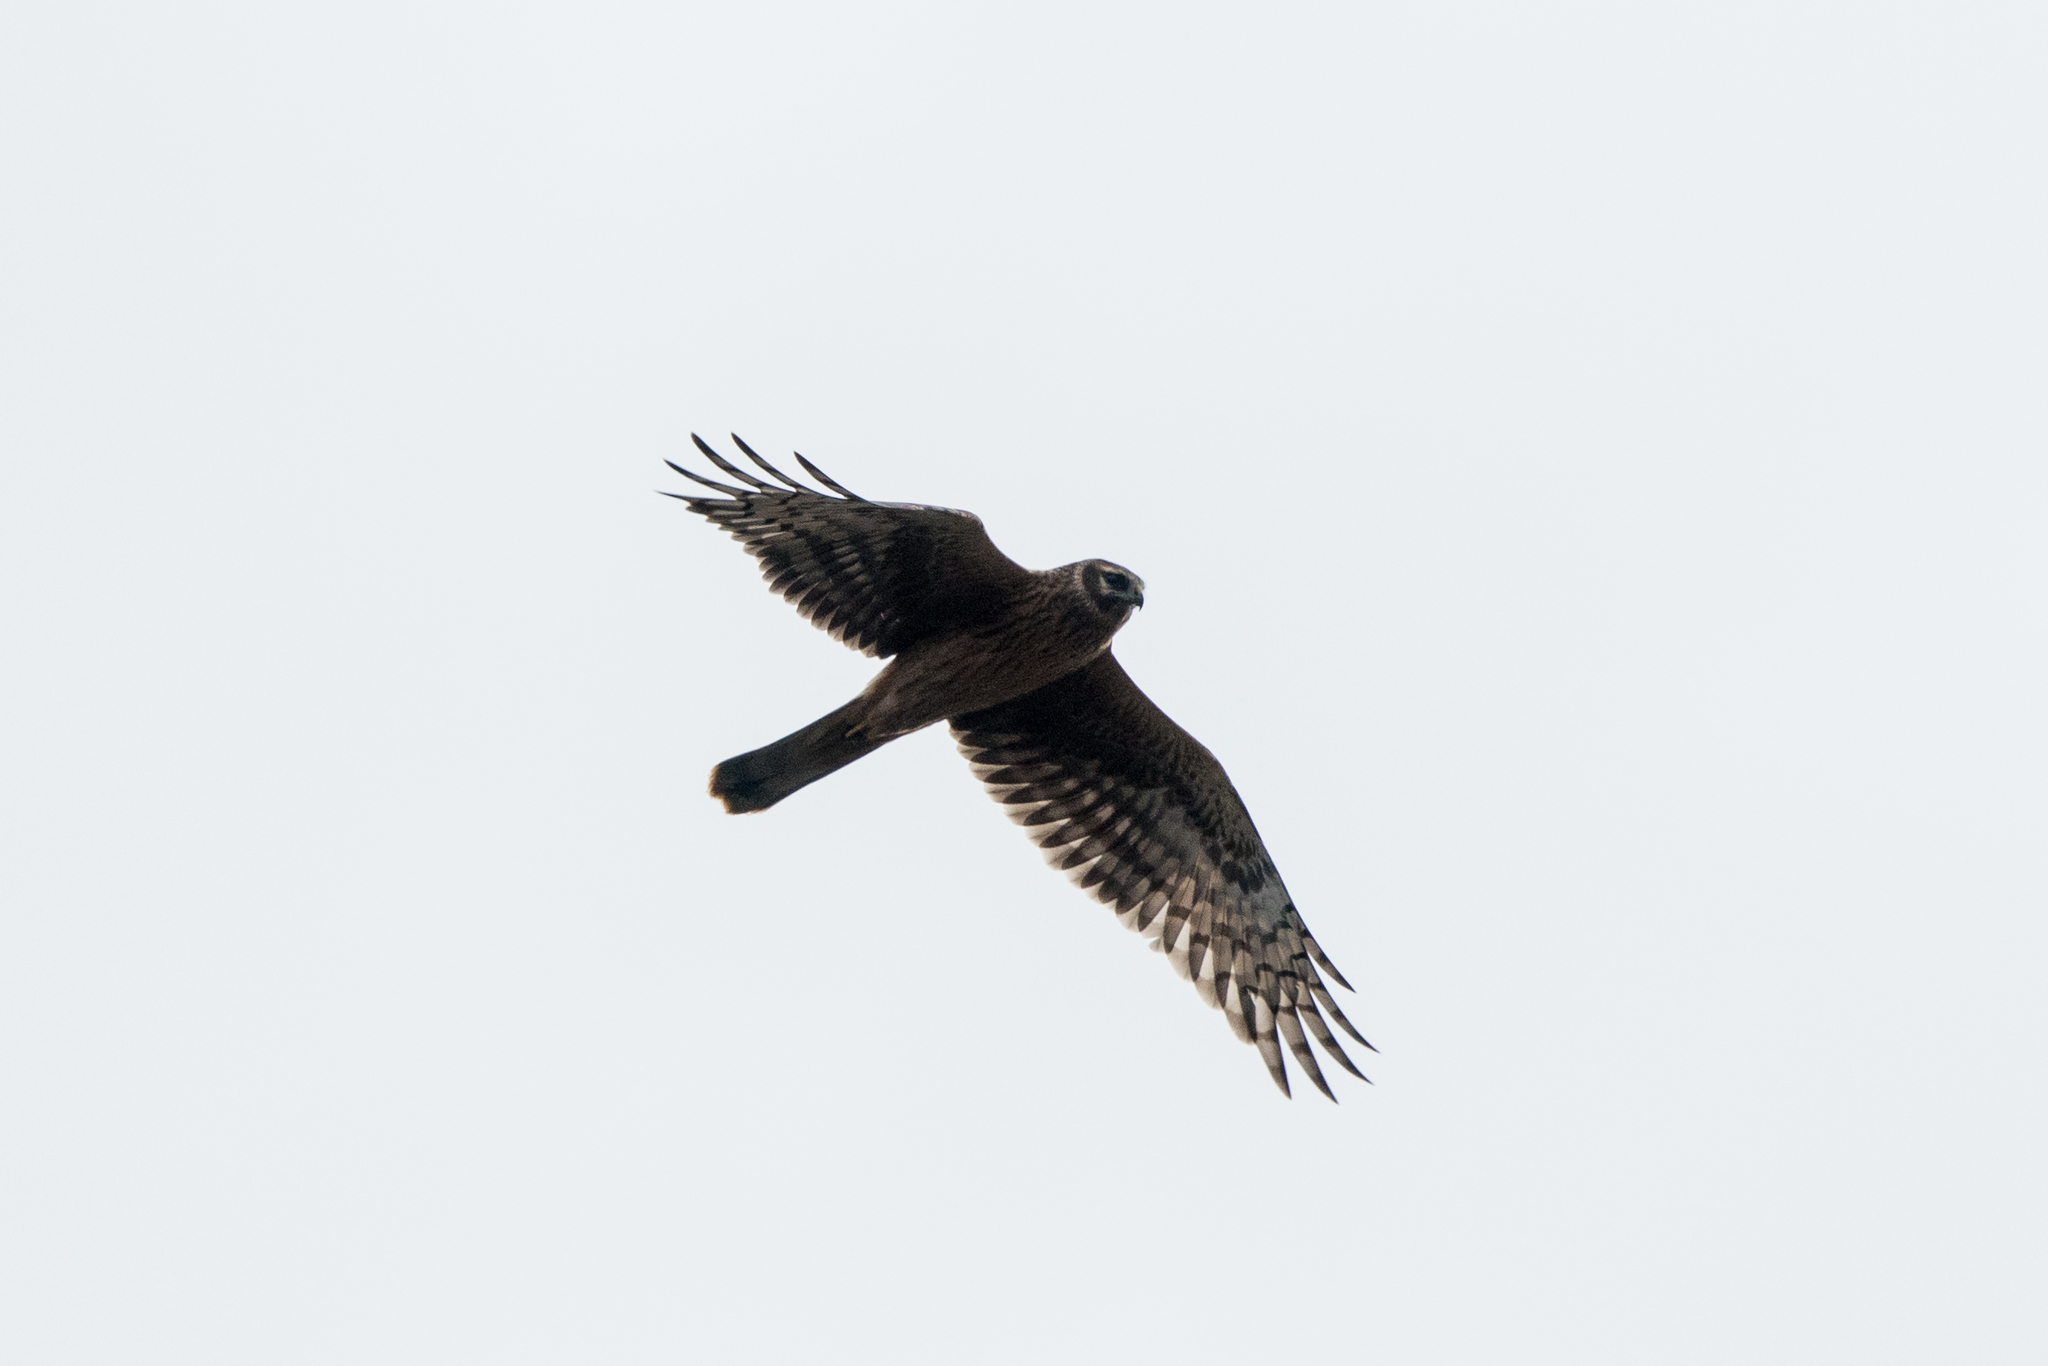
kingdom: Animalia
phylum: Chordata
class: Aves
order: Accipitriformes
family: Accipitridae
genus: Circus
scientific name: Circus cyaneus
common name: Hen harrier
